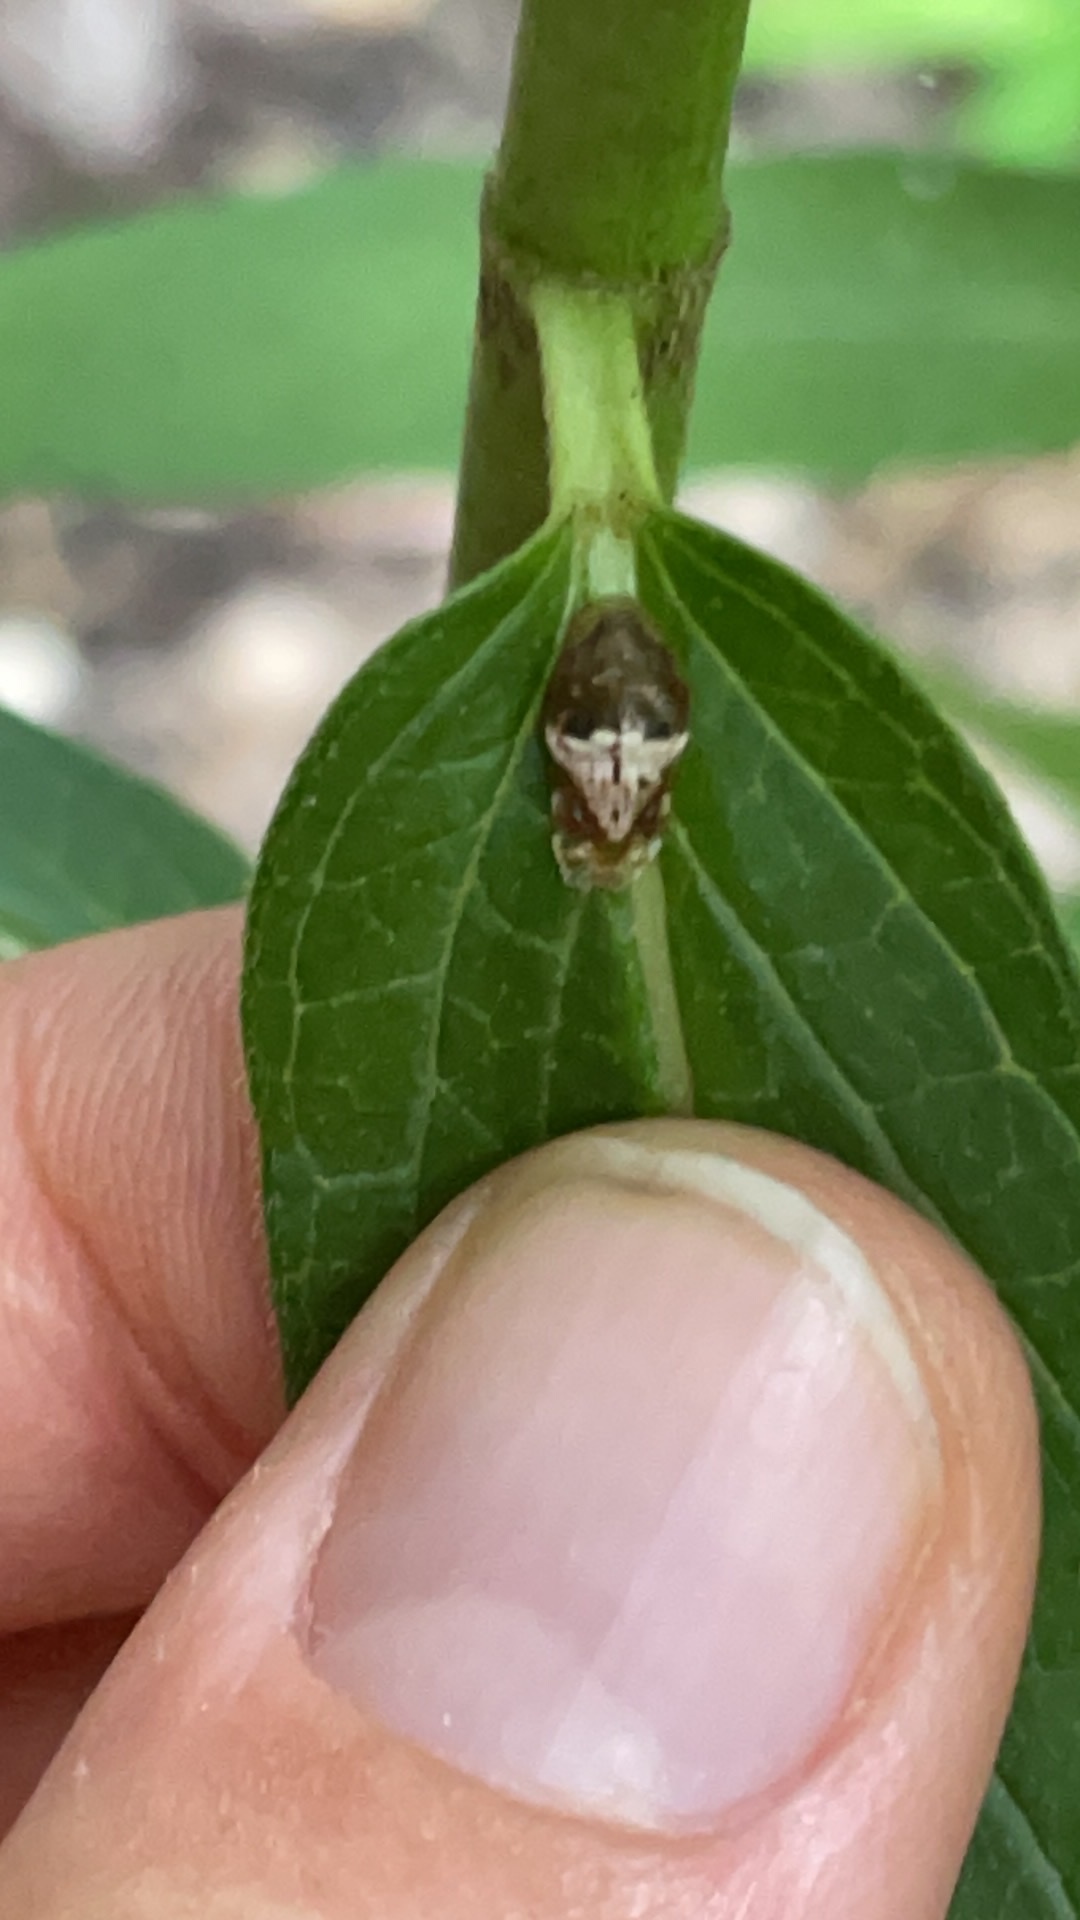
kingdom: Animalia
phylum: Arthropoda
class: Insecta
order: Diptera
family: Syrphidae
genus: Ocyptamus
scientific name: Ocyptamus fuscipennis
